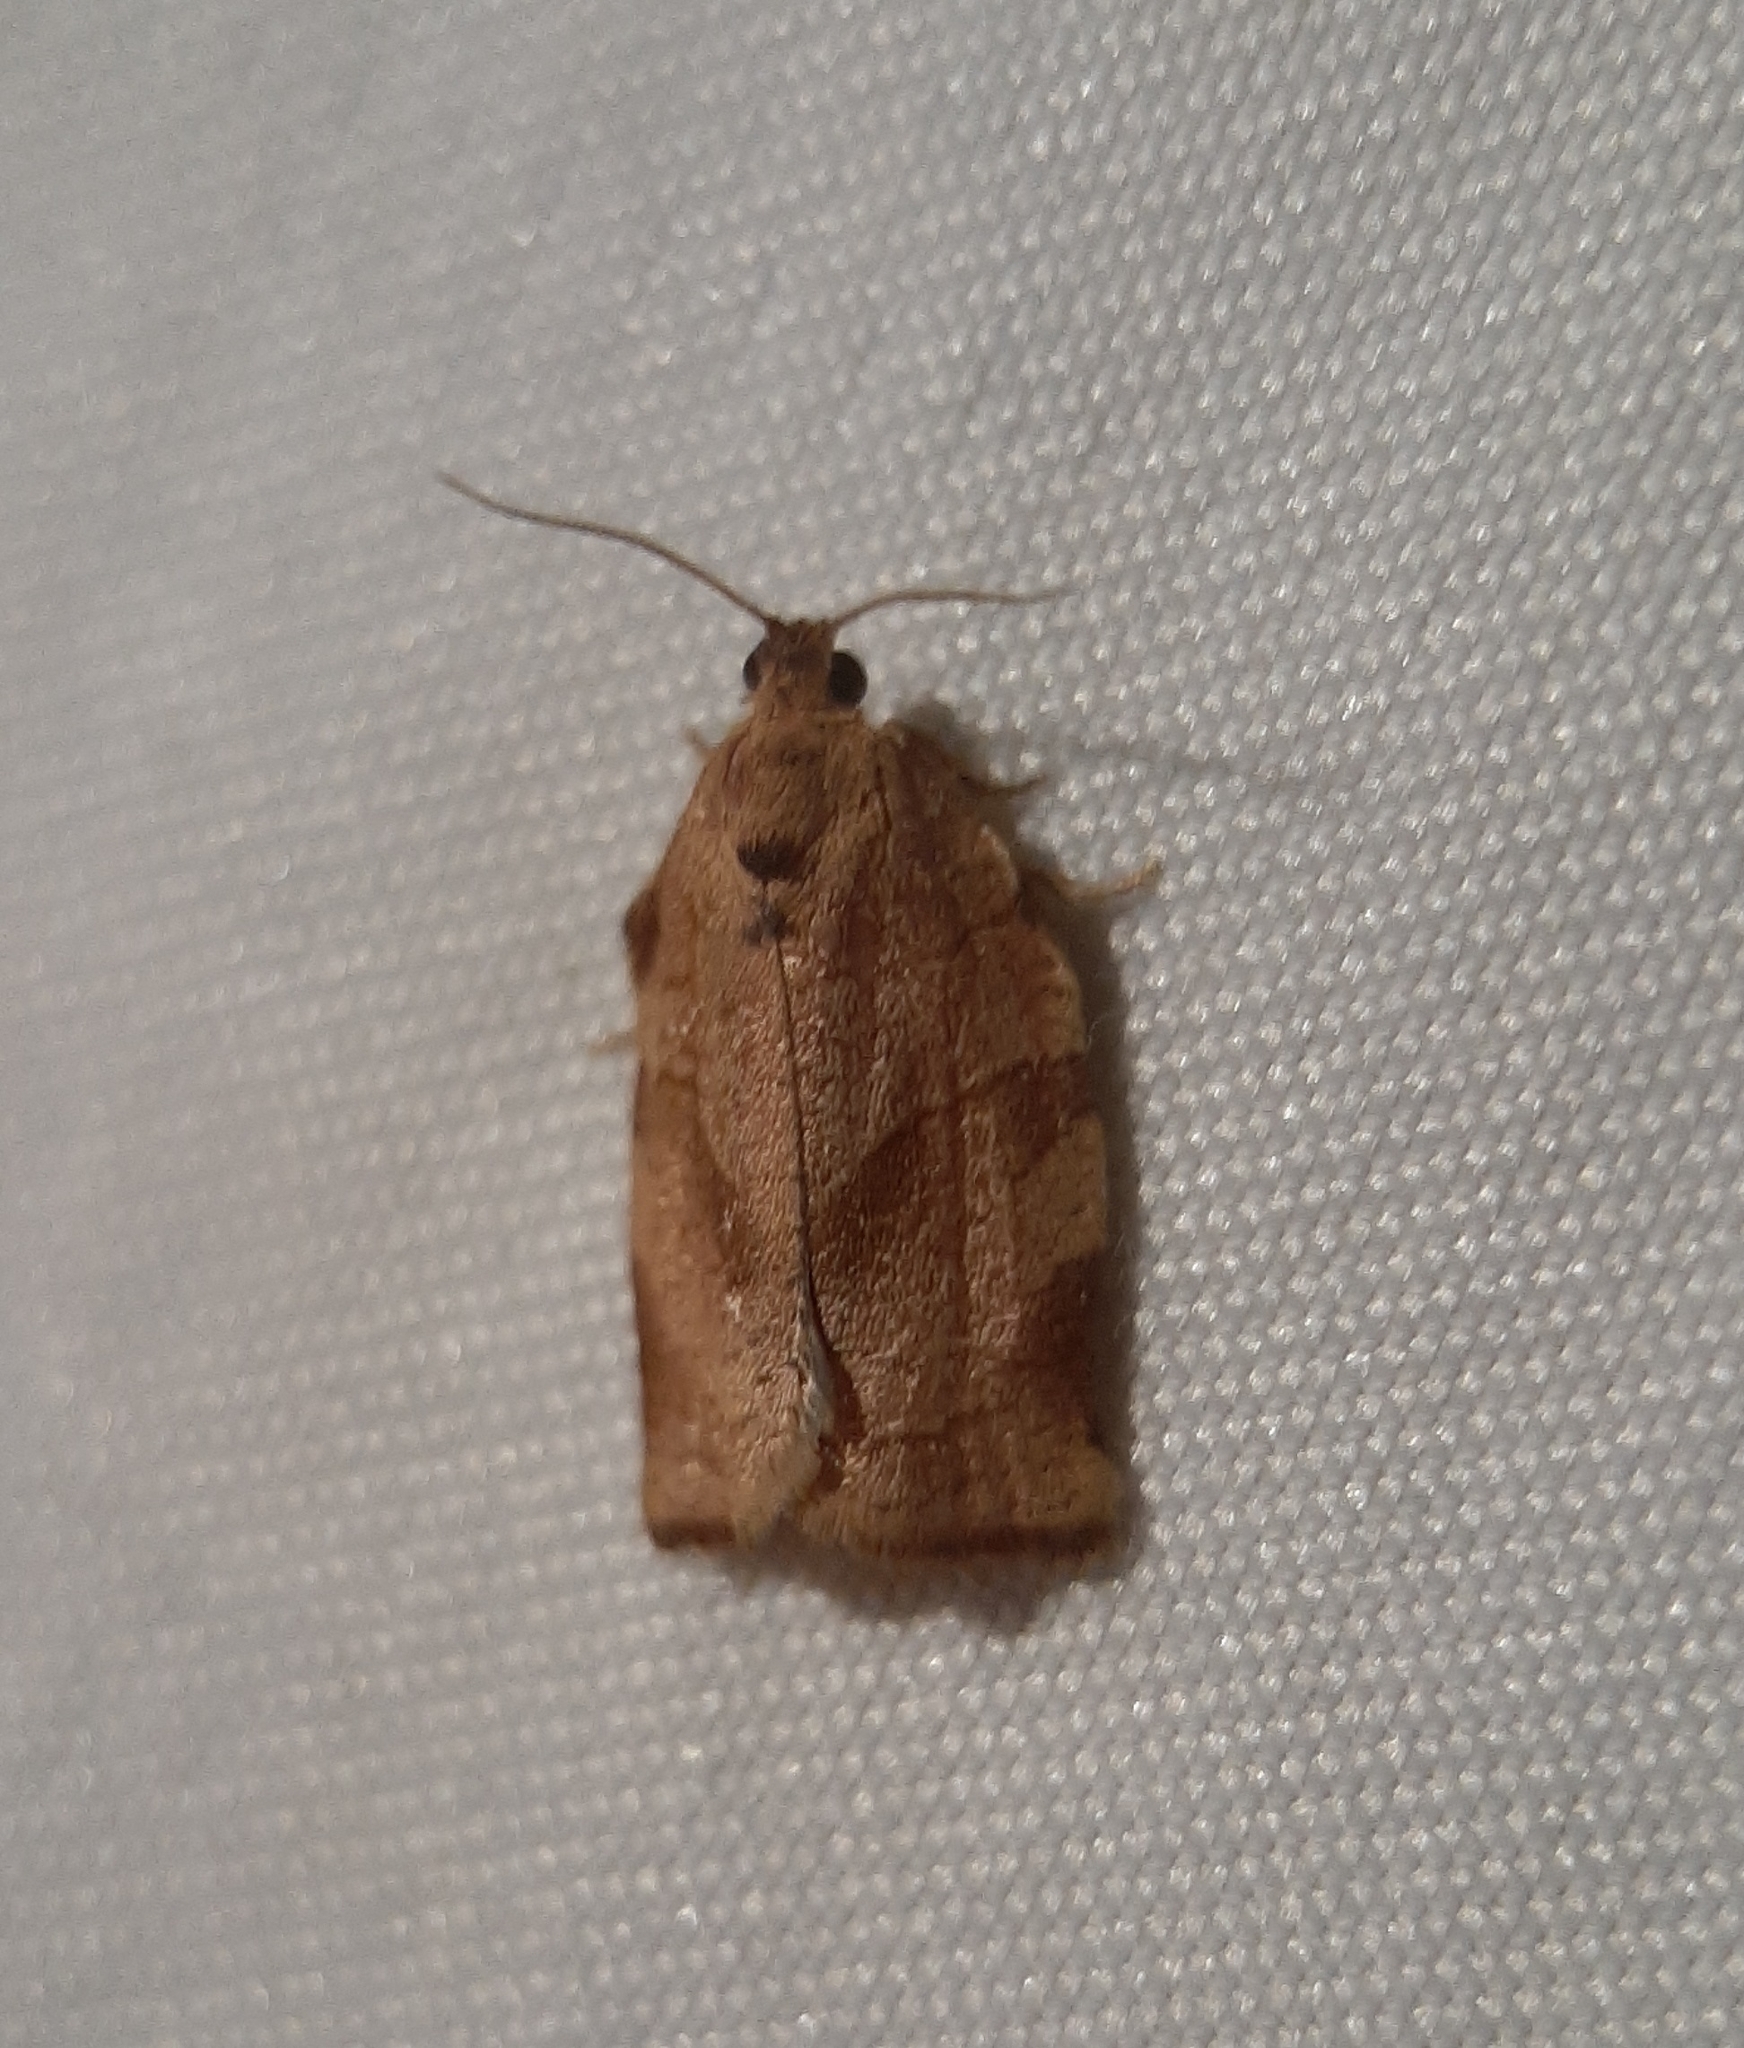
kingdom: Animalia
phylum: Arthropoda
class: Insecta
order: Lepidoptera
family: Tortricidae
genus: Choristoneura
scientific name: Choristoneura rosaceana
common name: Oblique-banded leafroller moth
